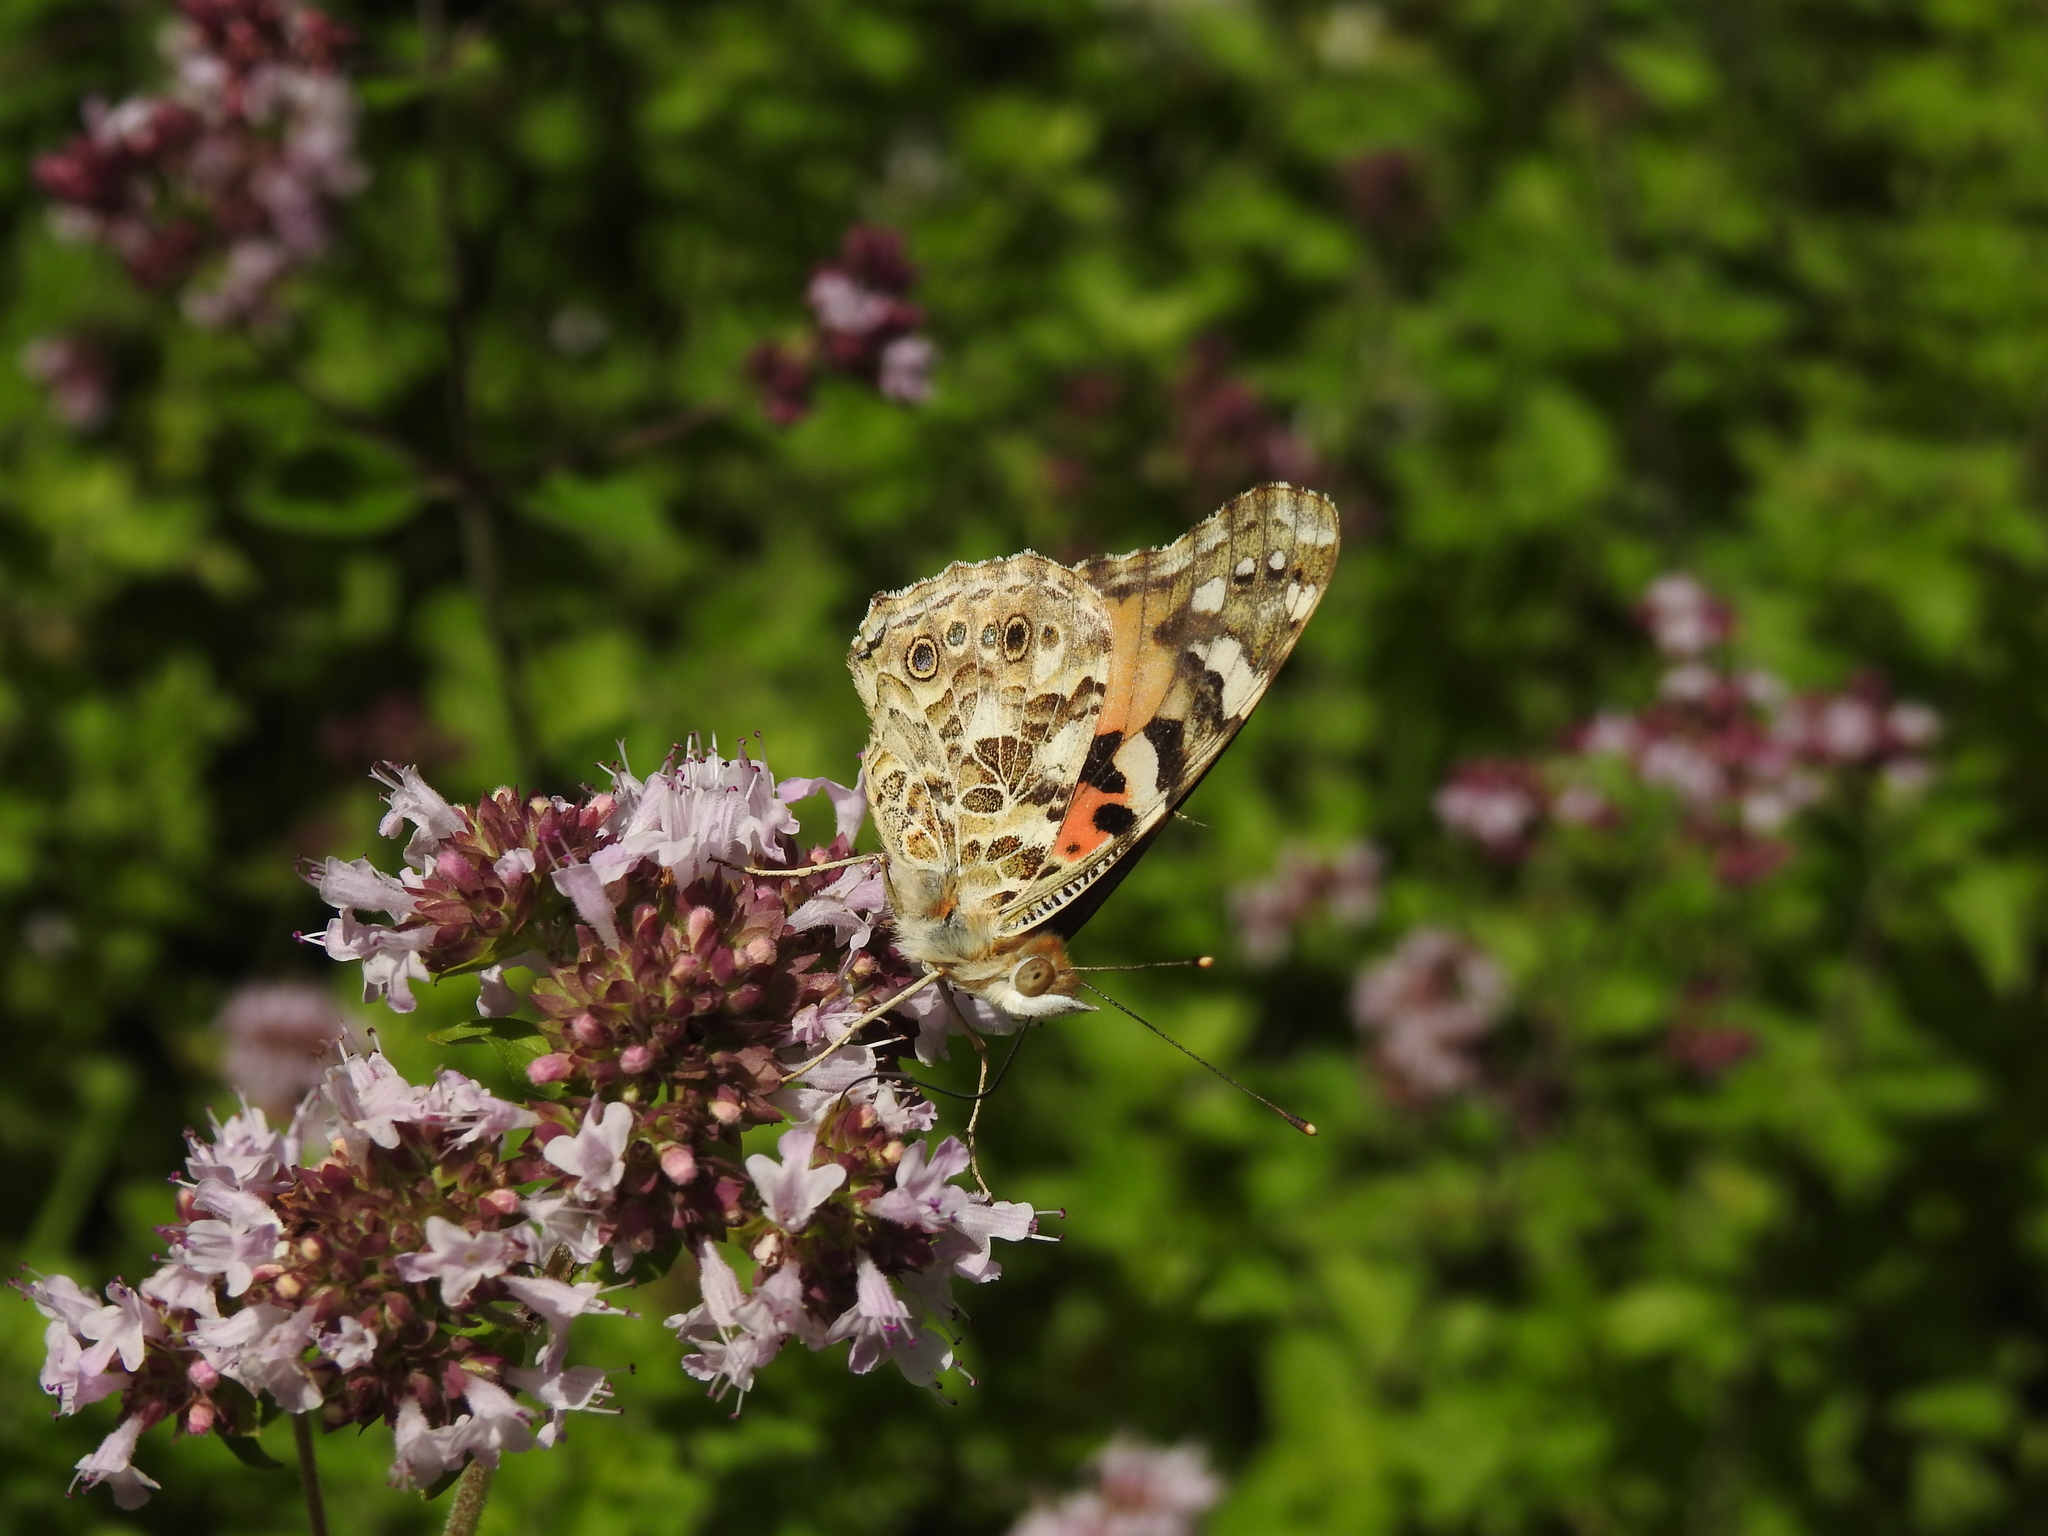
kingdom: Animalia
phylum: Arthropoda
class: Insecta
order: Lepidoptera
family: Nymphalidae
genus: Vanessa
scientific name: Vanessa cardui
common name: Painted lady
